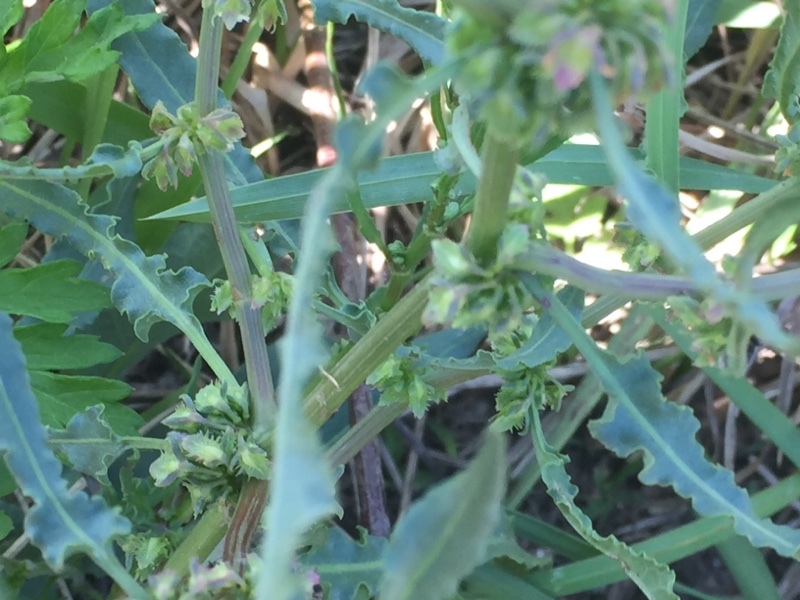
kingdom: Plantae
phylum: Tracheophyta
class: Magnoliopsida
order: Caryophyllales
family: Polygonaceae
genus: Rumex
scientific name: Rumex pulcher
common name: Fiddle dock
